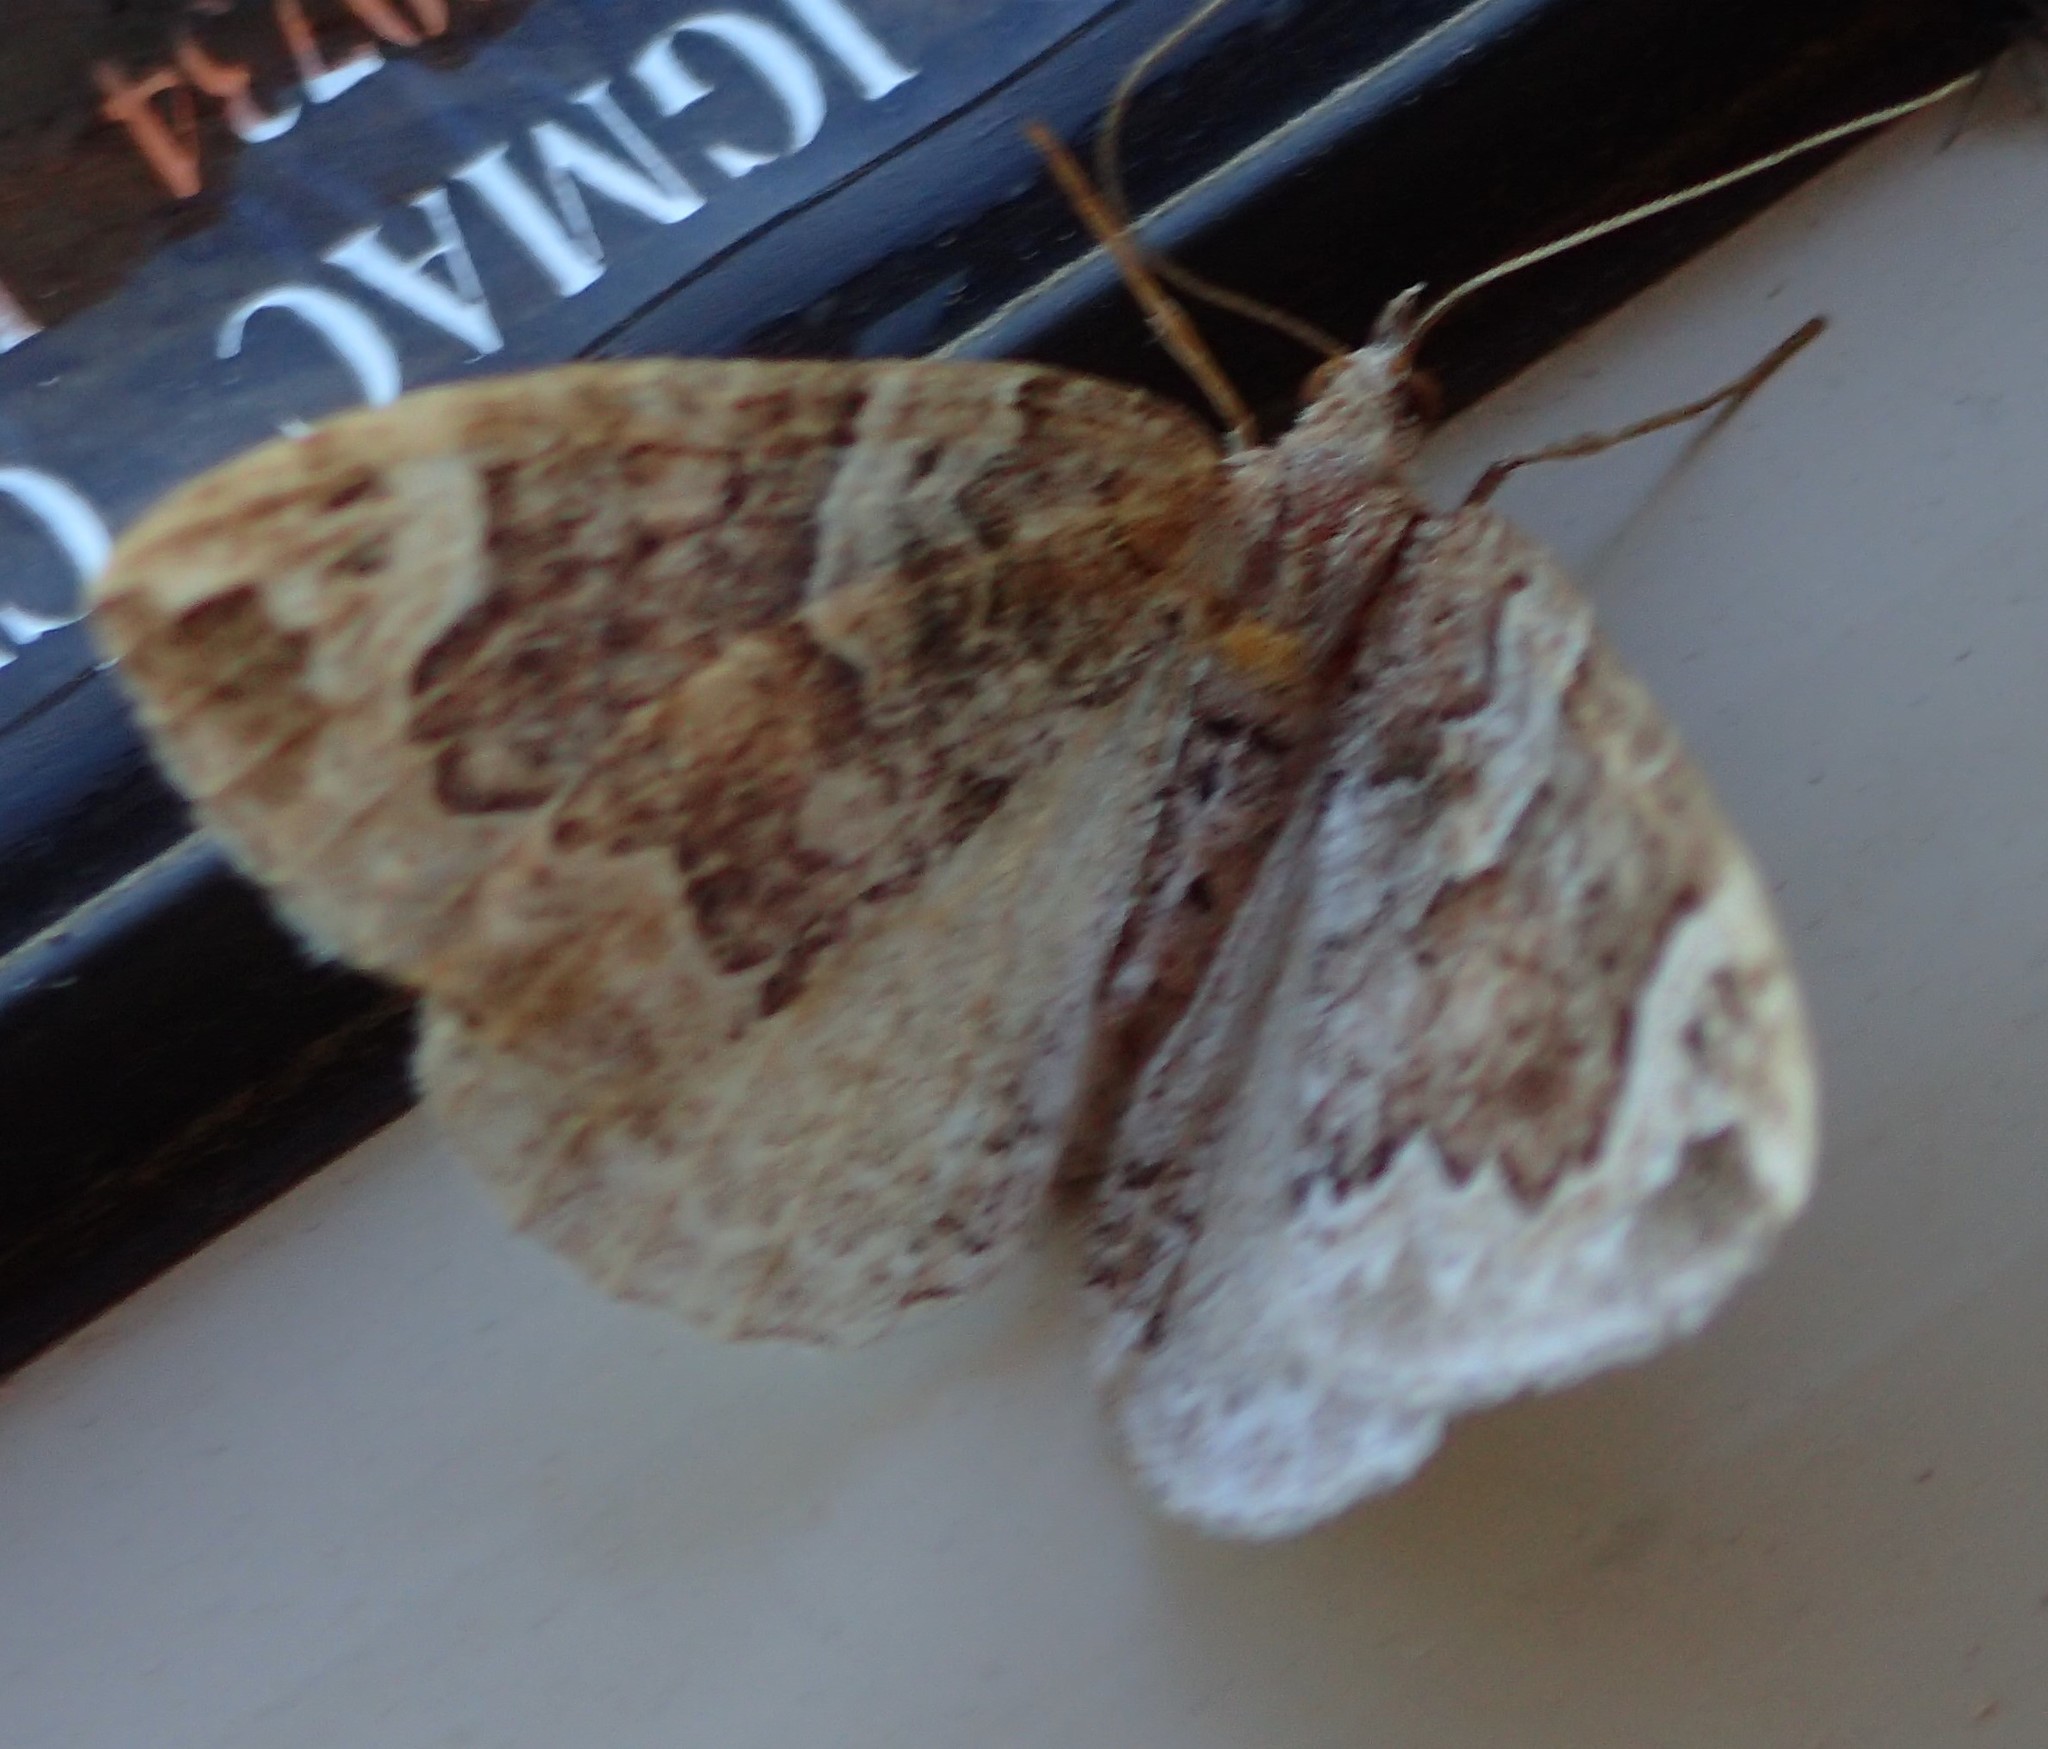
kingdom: Animalia
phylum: Arthropoda
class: Insecta
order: Lepidoptera
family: Geometridae
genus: Eulithis
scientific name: Eulithis xylina
